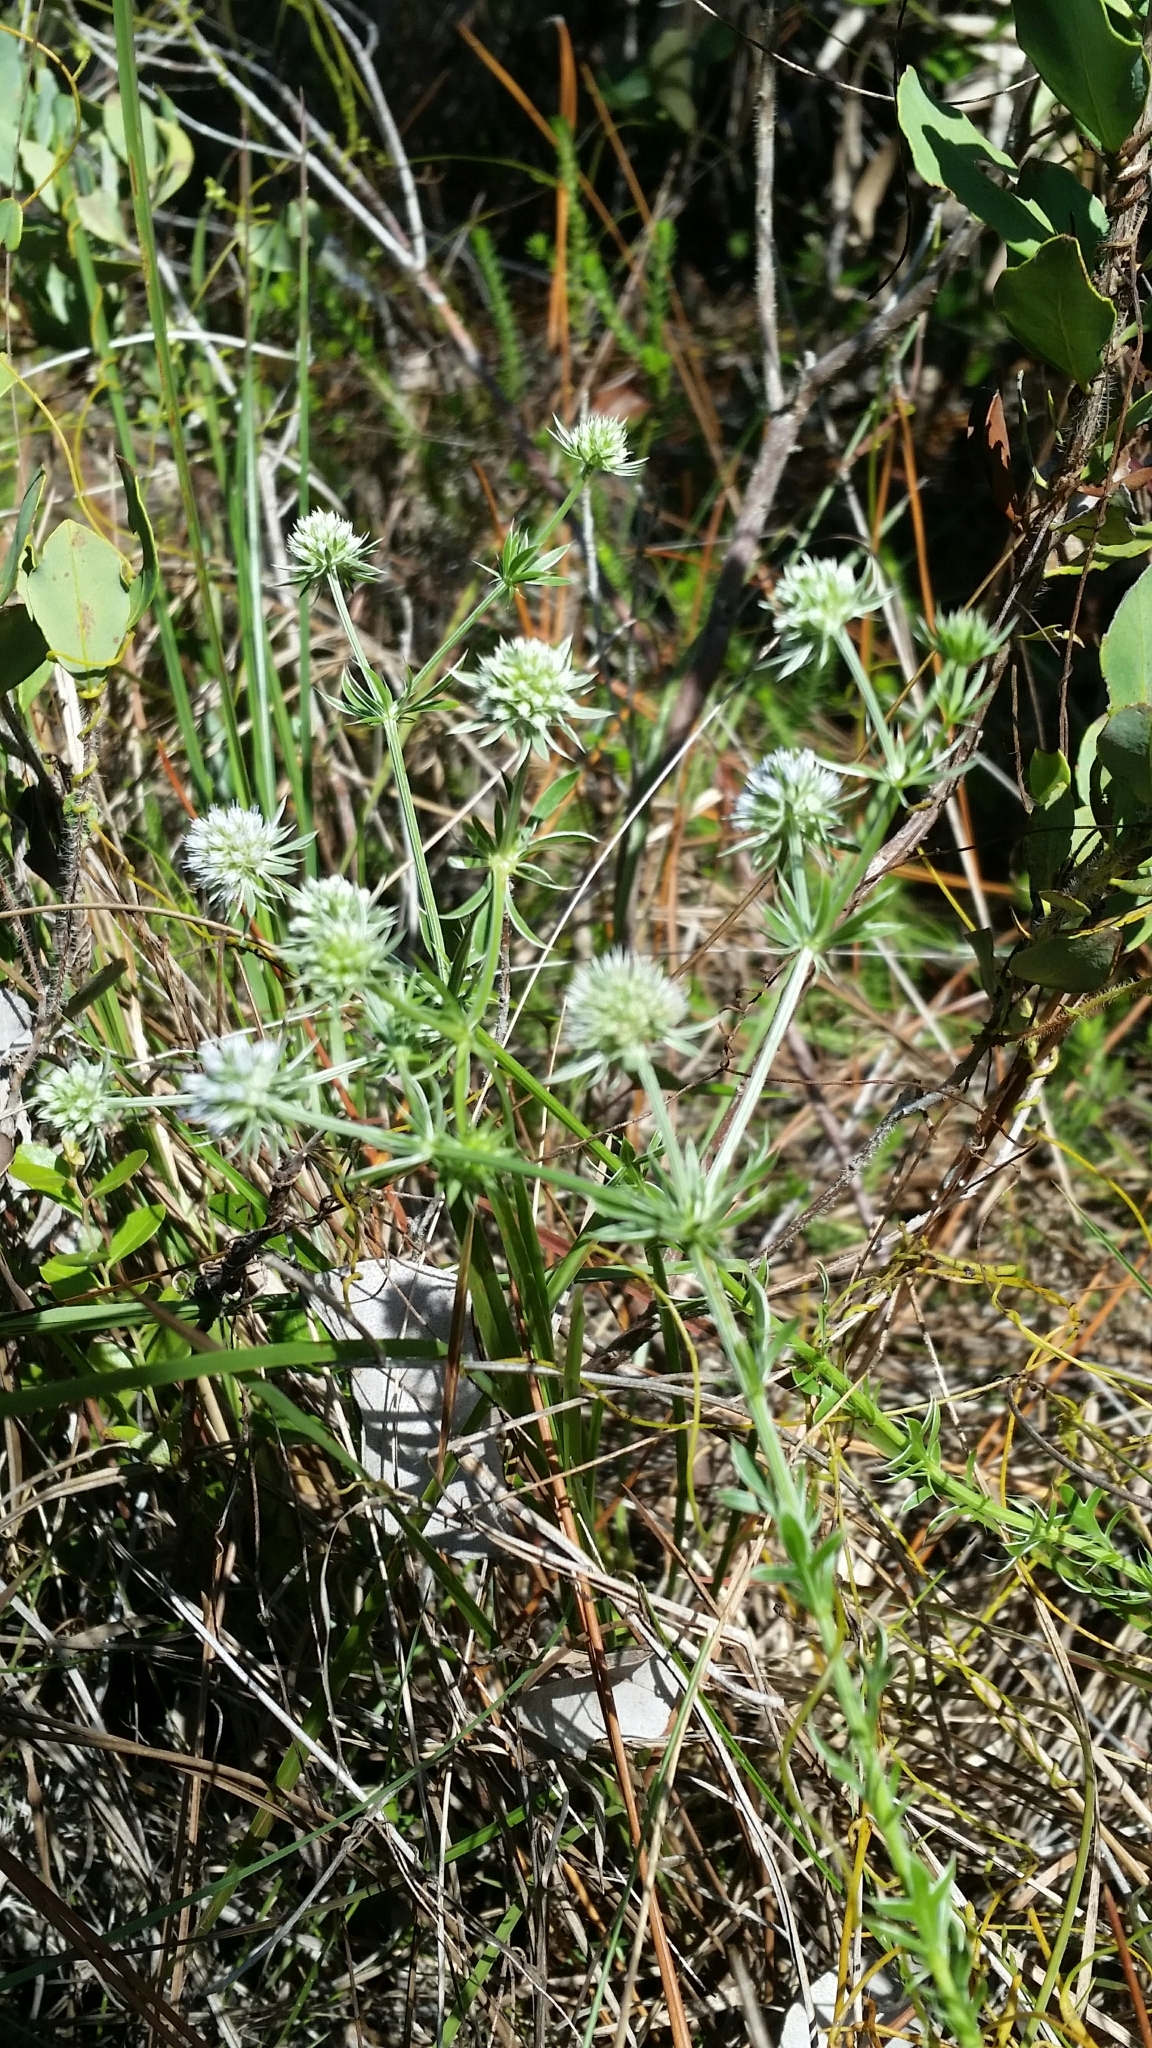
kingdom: Plantae
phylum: Tracheophyta
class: Magnoliopsida
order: Apiales
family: Apiaceae
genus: Eryngium
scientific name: Eryngium aromaticum
